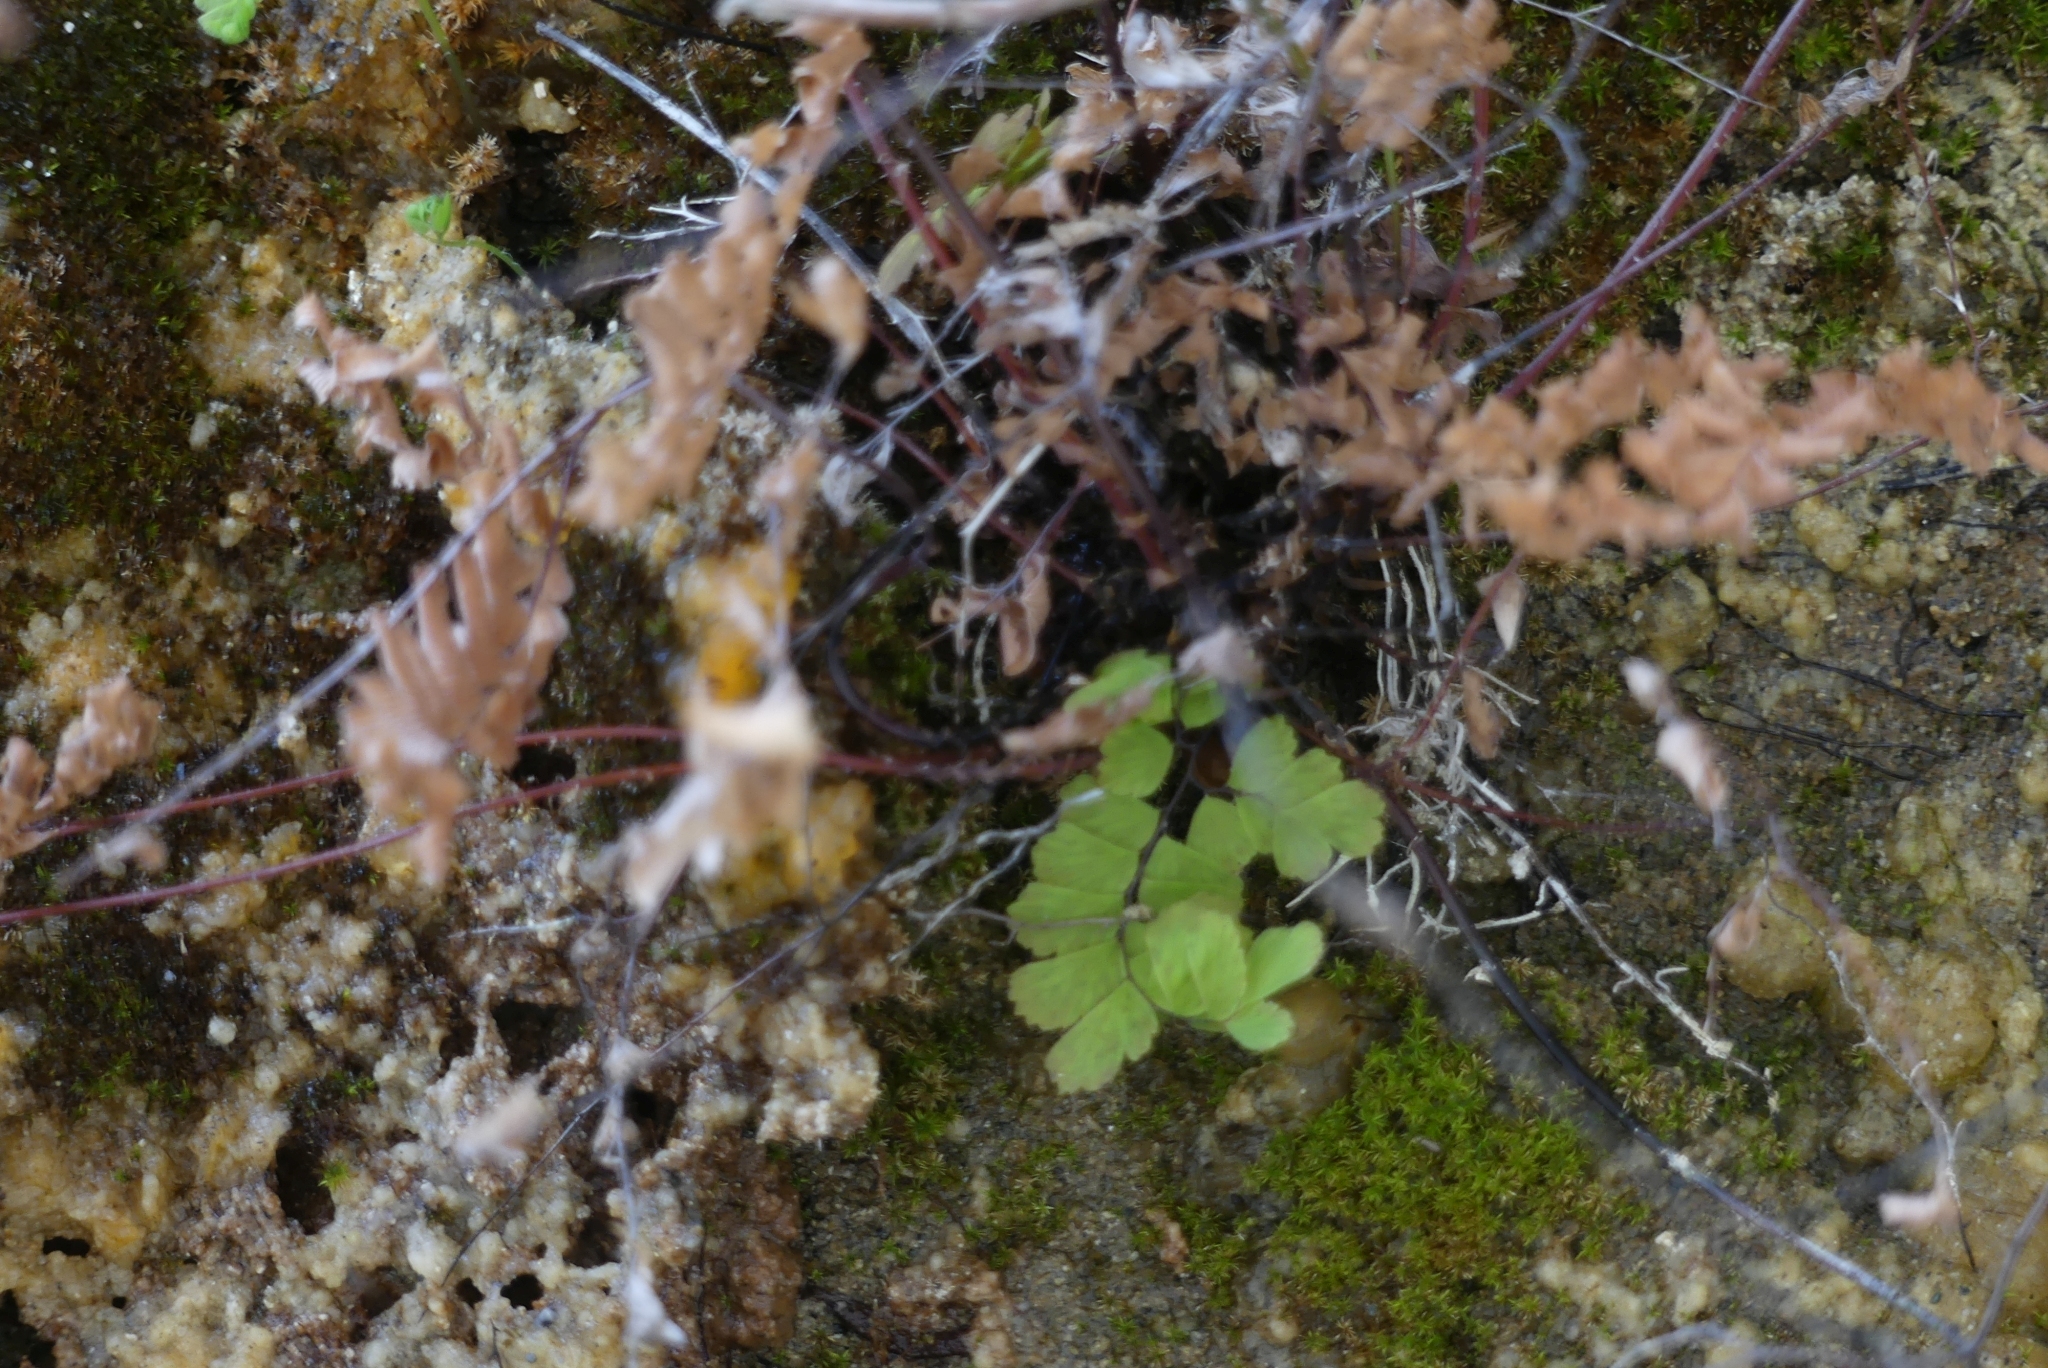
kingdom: Plantae
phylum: Tracheophyta
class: Polypodiopsida
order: Polypodiales
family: Pteridaceae
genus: Adiantum
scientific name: Adiantum aleuticum
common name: Aleutian maidenhair fern
